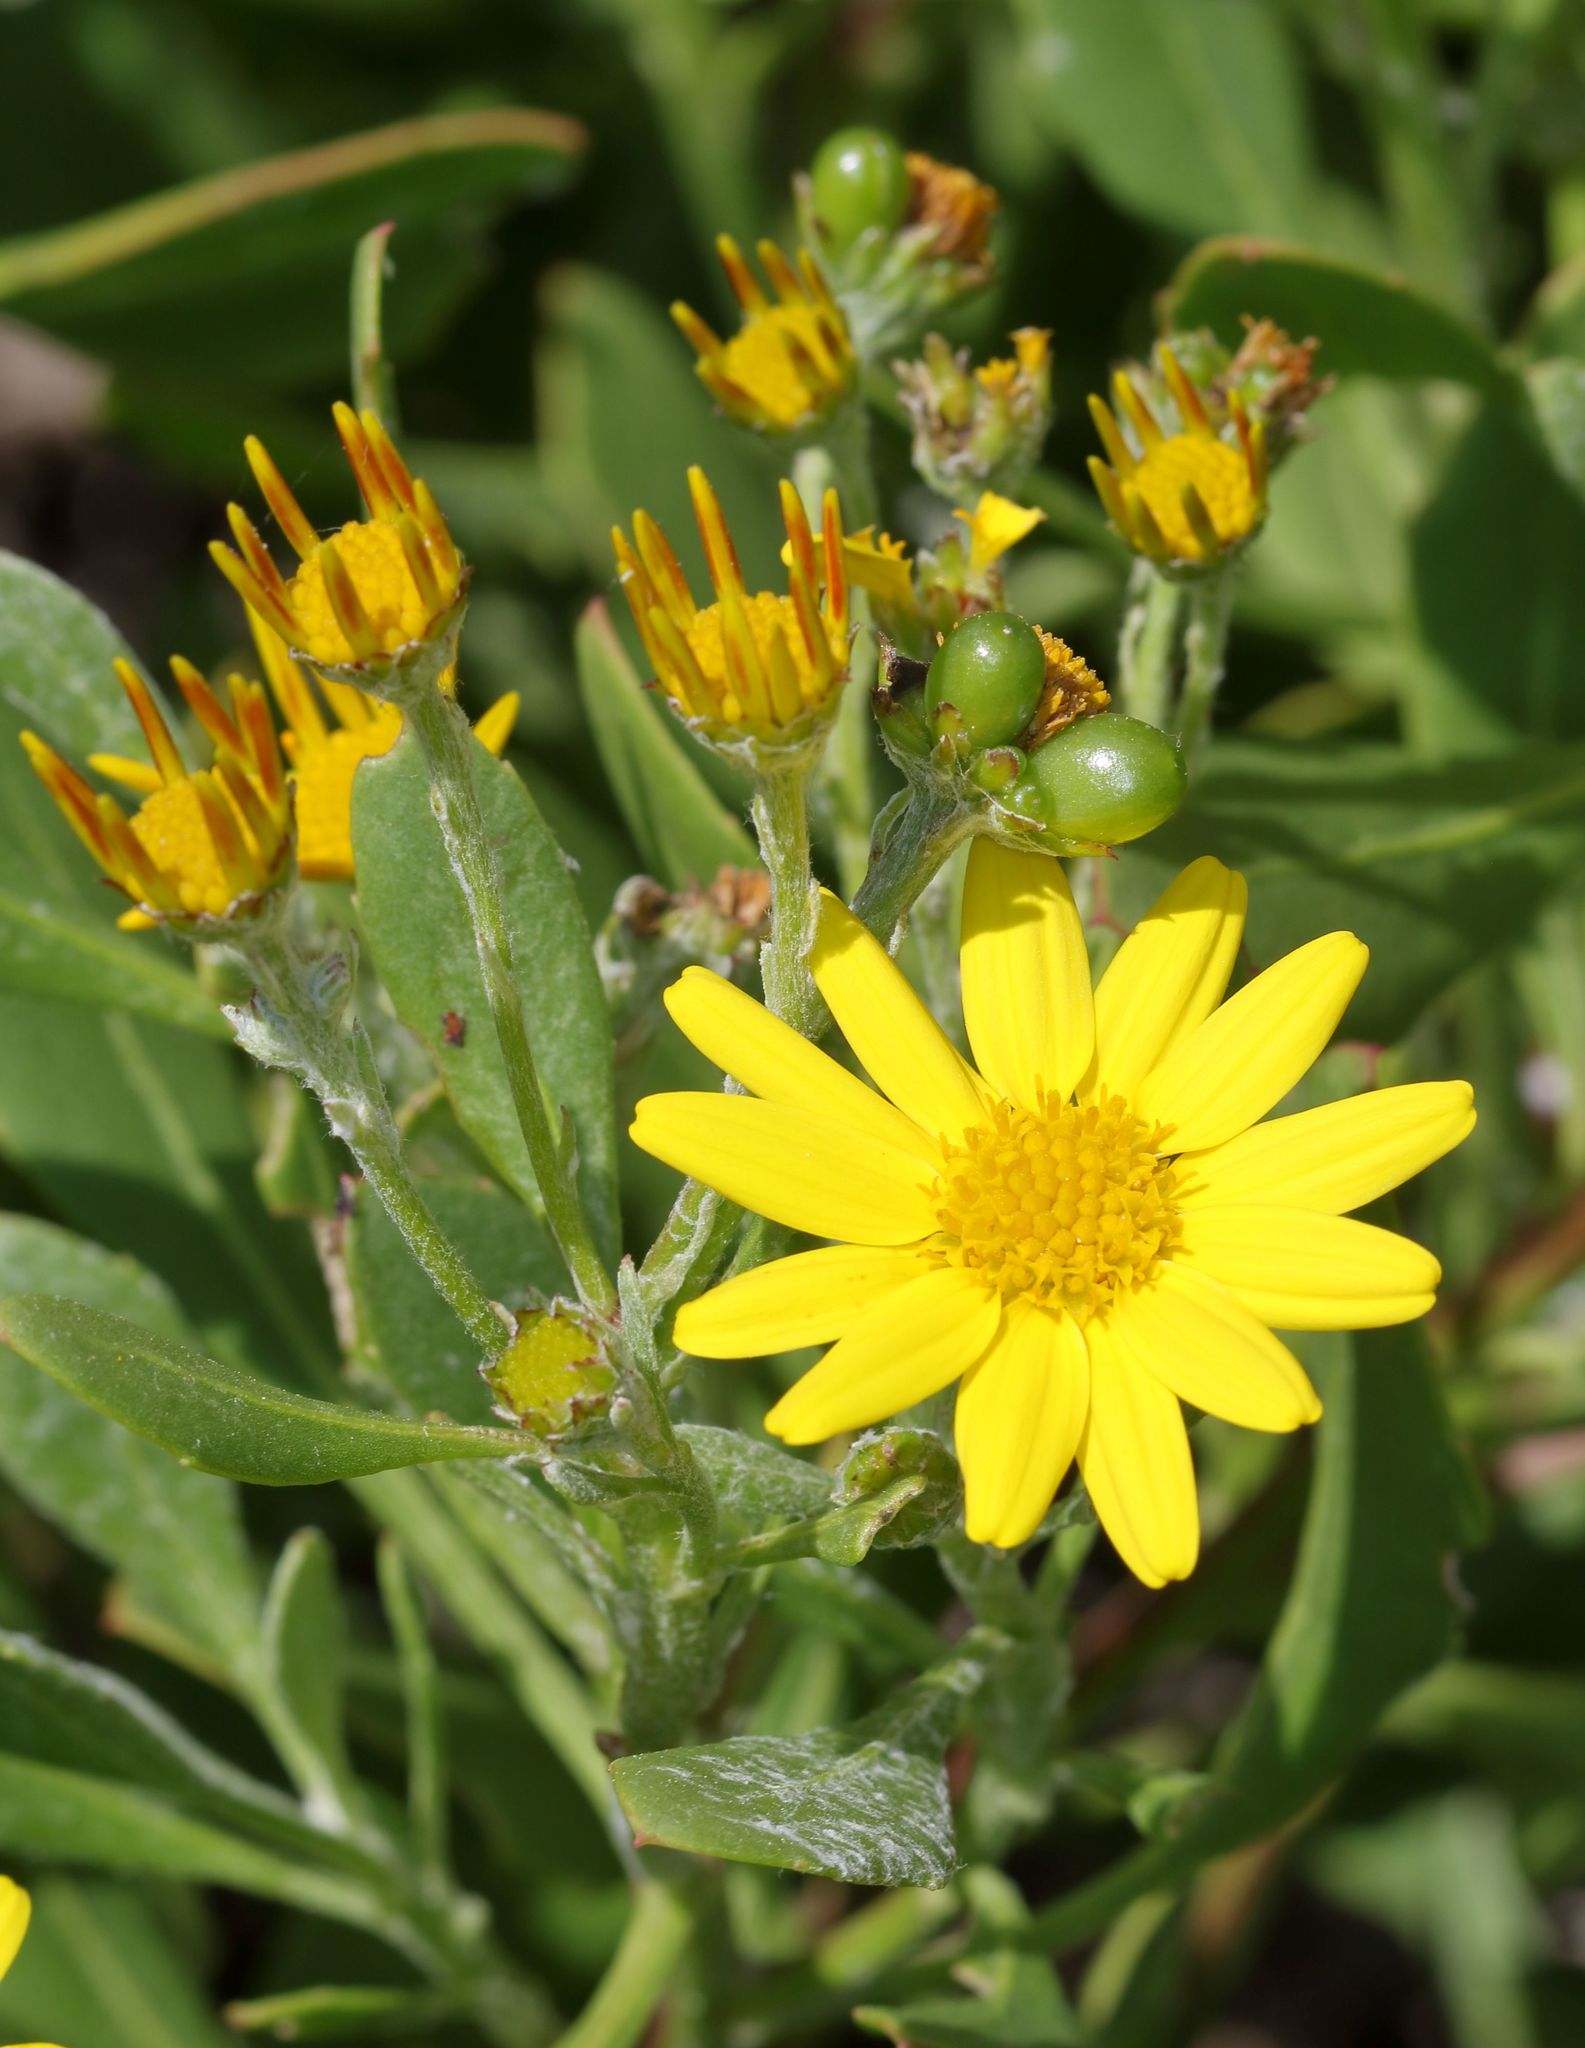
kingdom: Plantae
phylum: Tracheophyta
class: Magnoliopsida
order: Asterales
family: Asteraceae
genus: Osteospermum
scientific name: Osteospermum moniliferum
